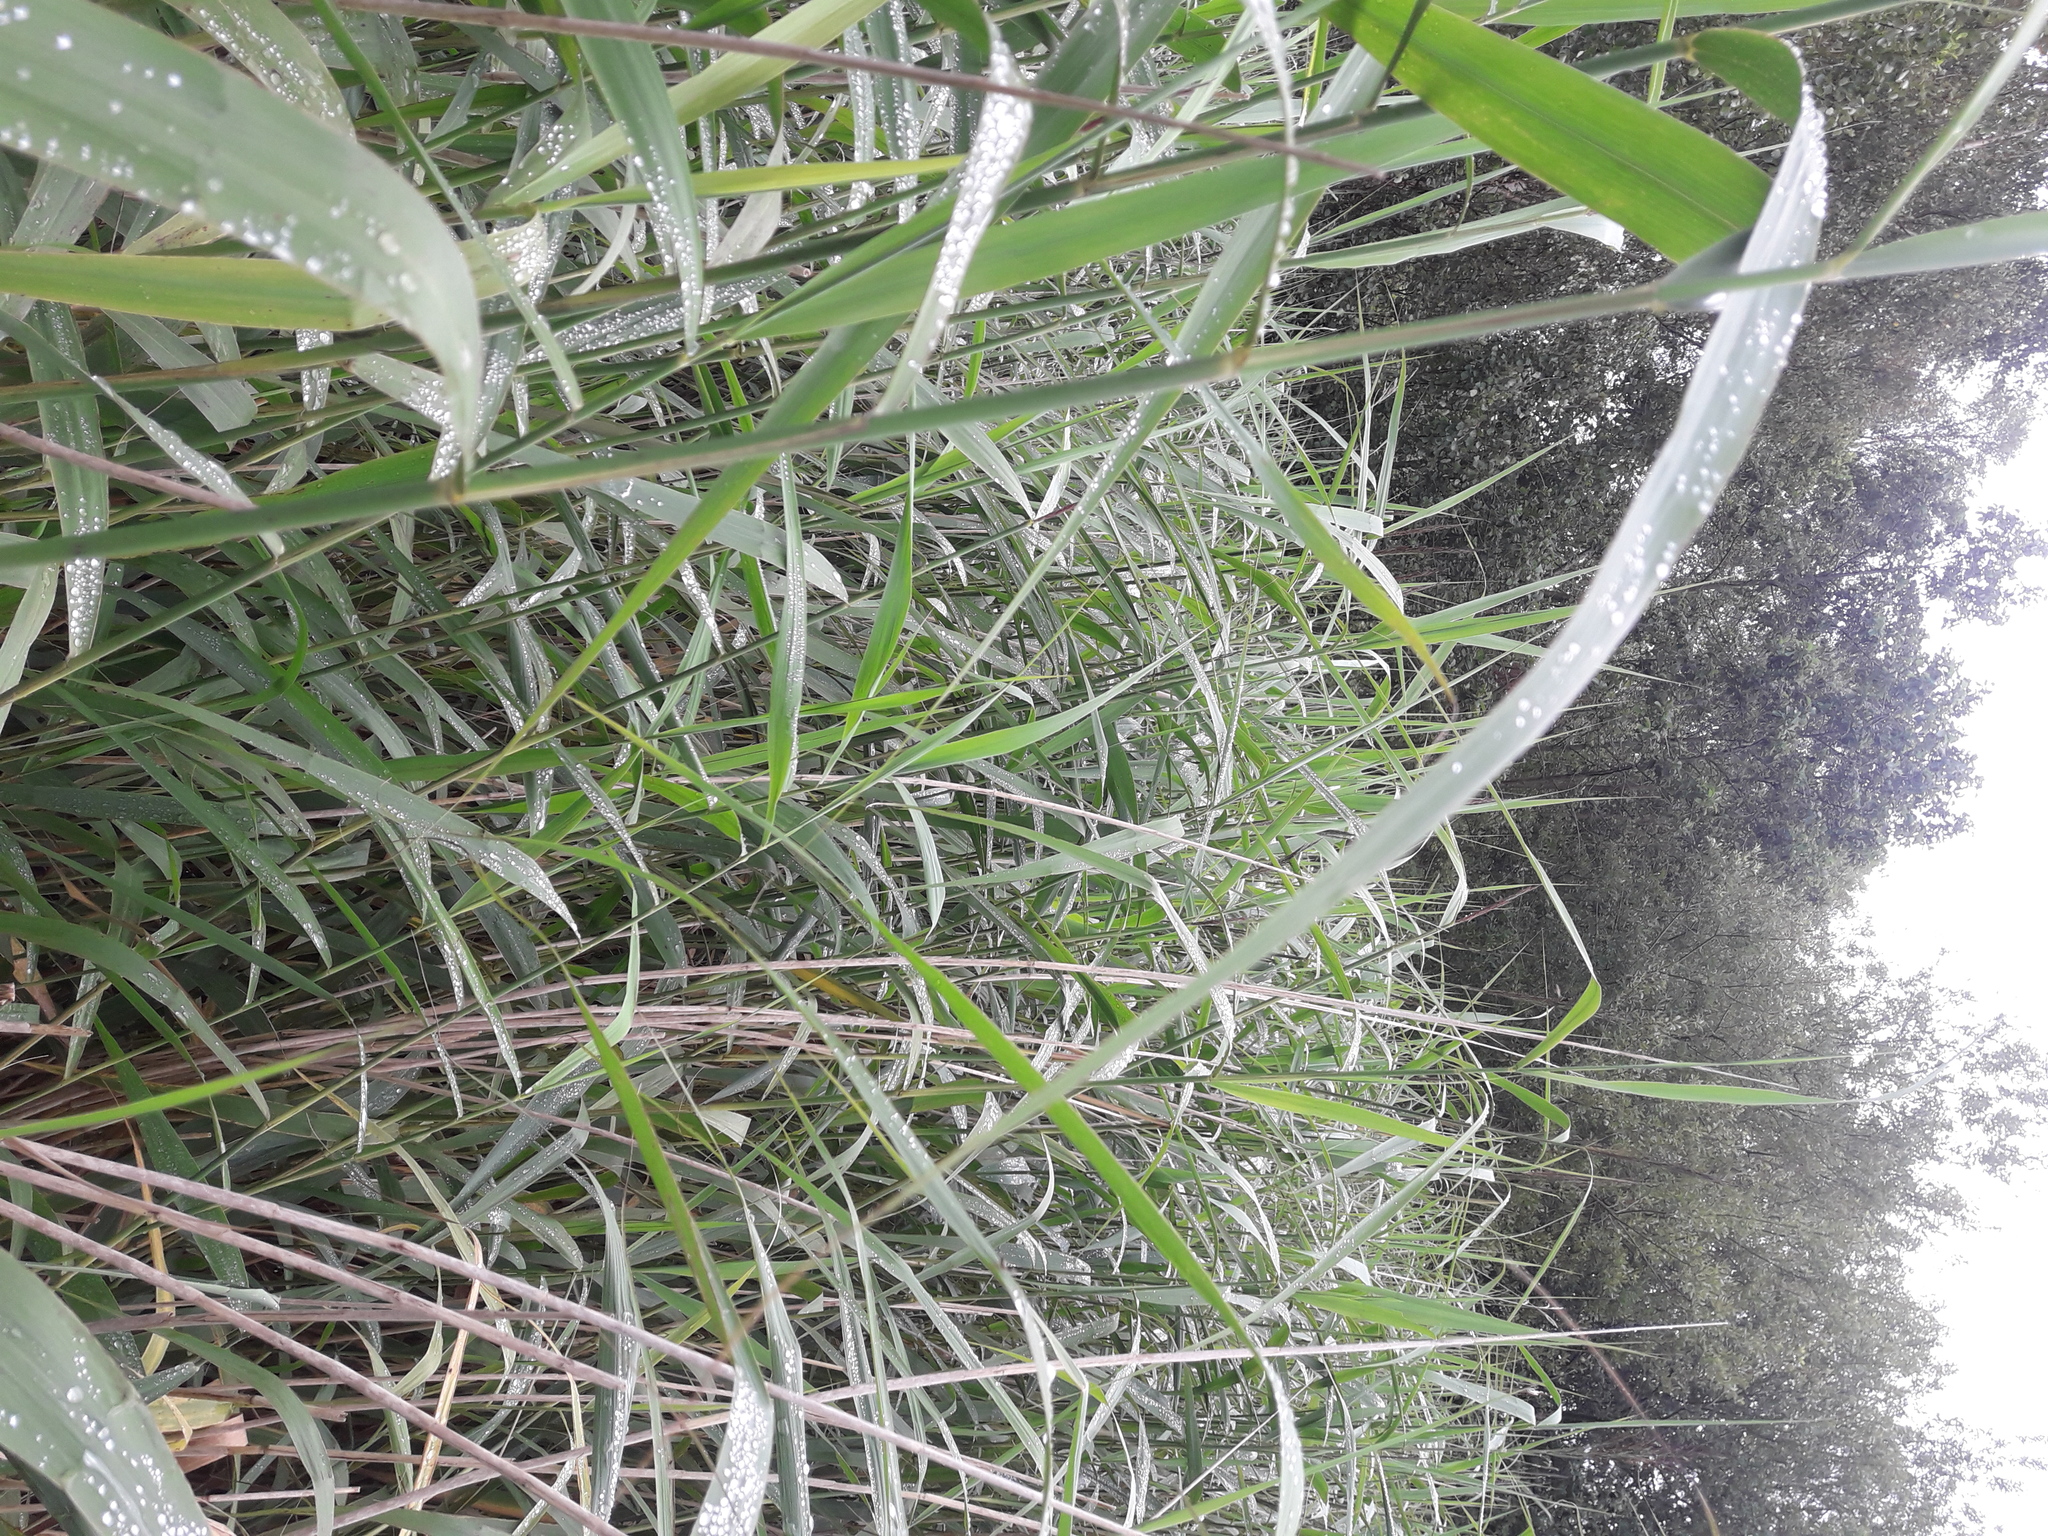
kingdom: Plantae
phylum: Tracheophyta
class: Liliopsida
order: Poales
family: Poaceae
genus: Phragmites
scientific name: Phragmites australis
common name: Common reed
